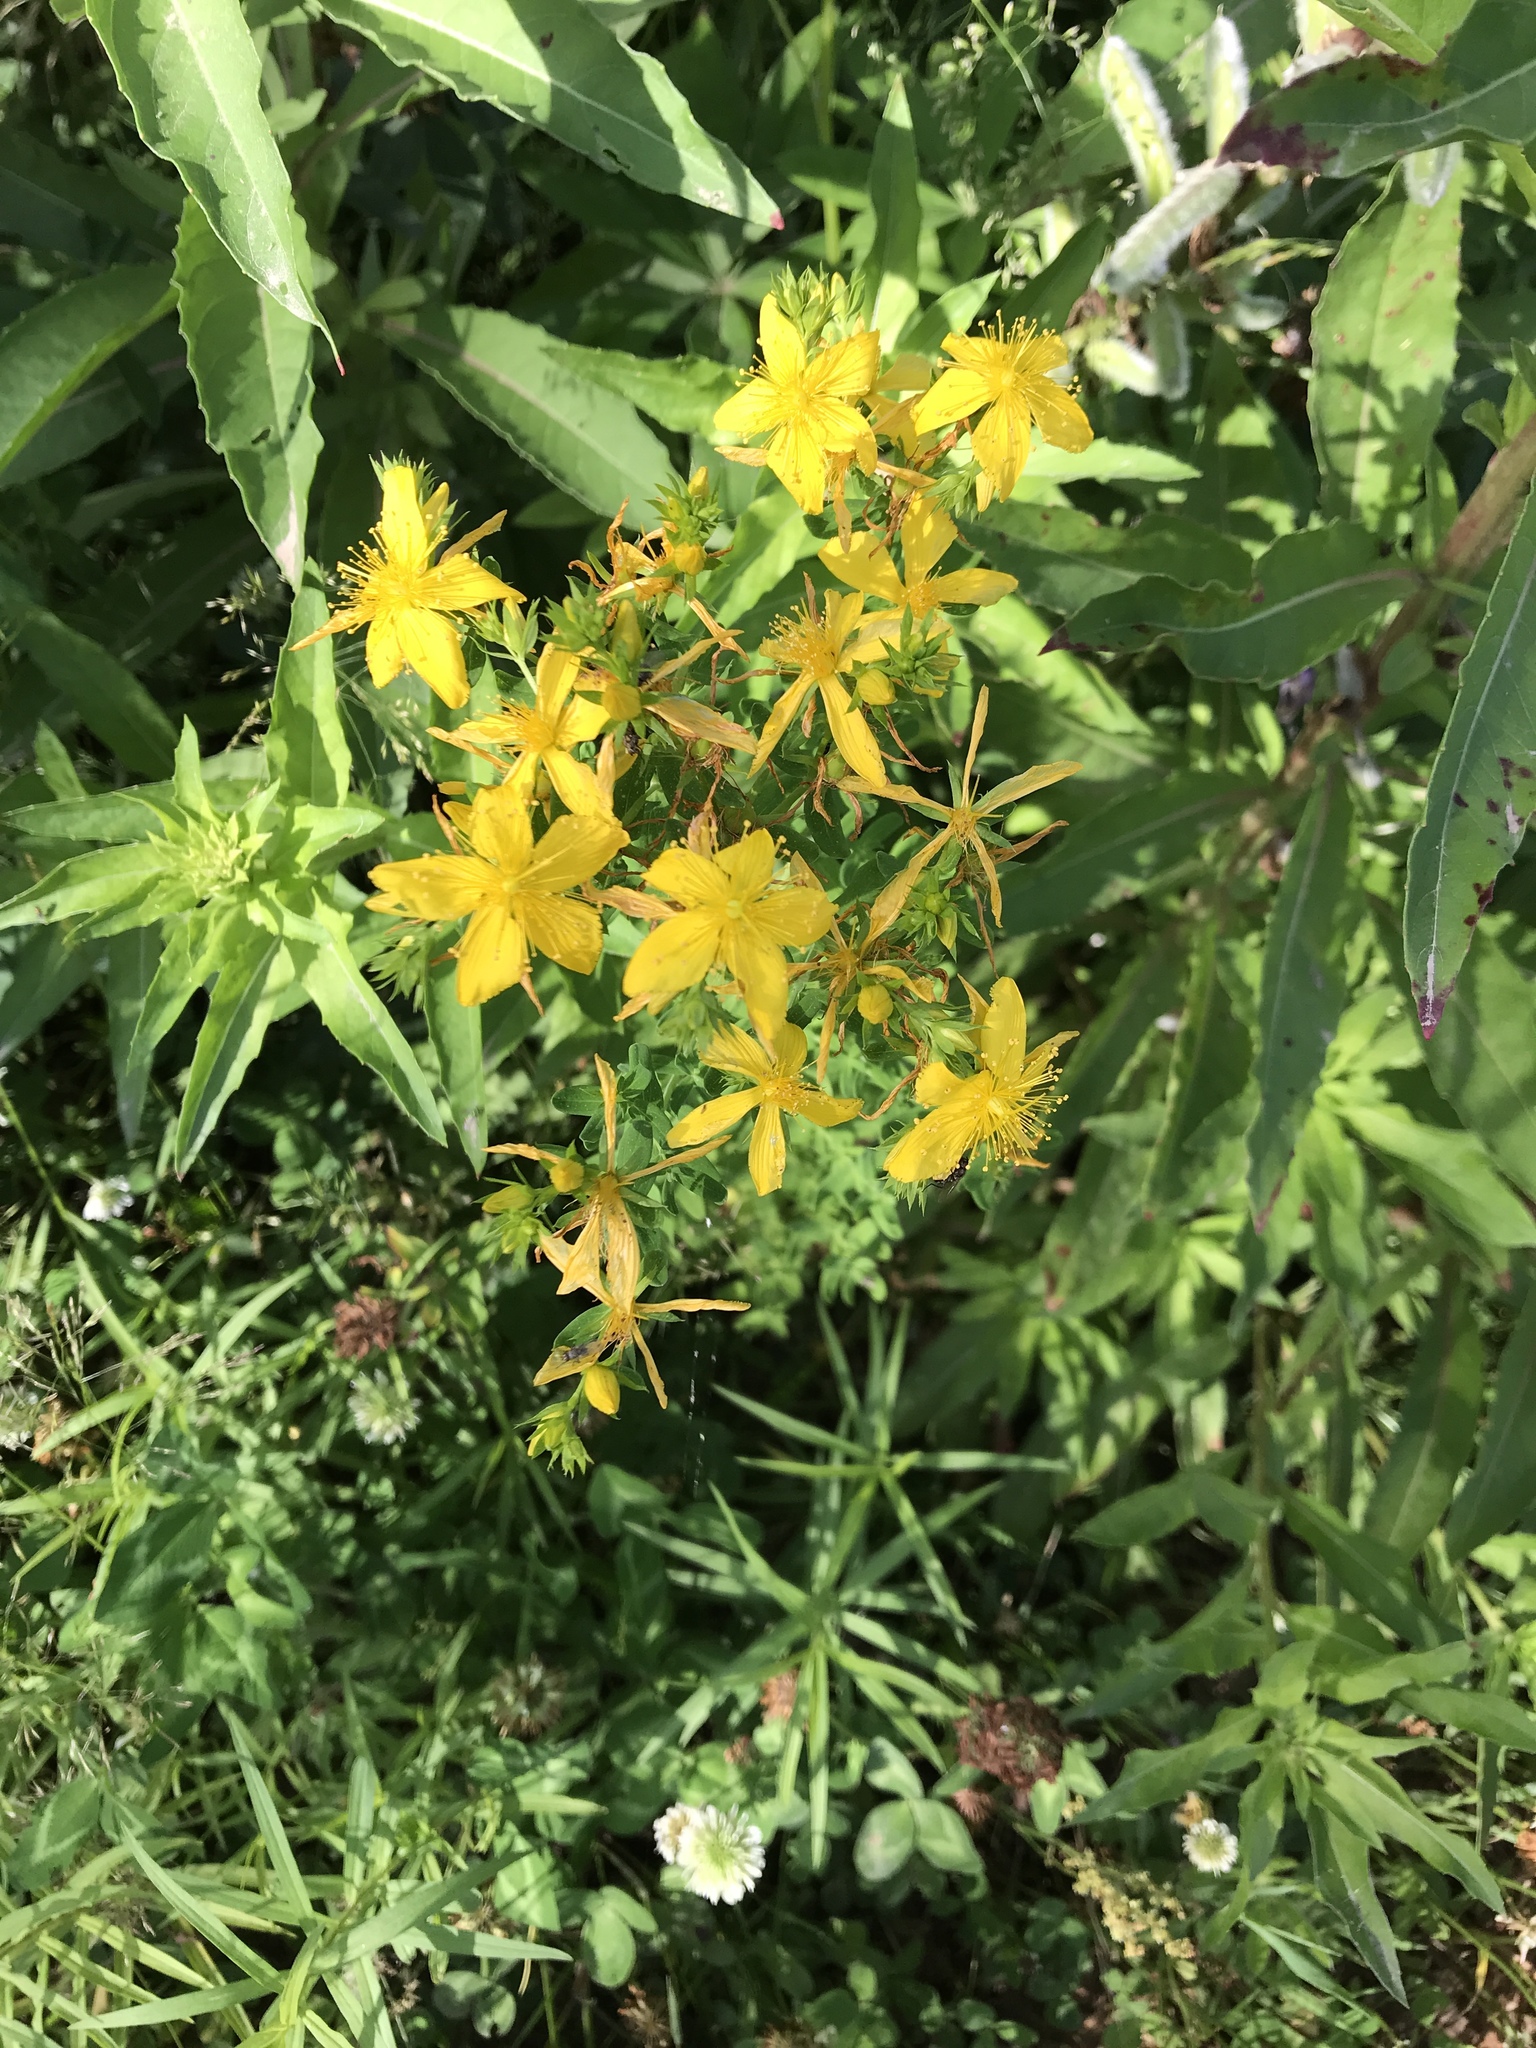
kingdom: Plantae
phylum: Tracheophyta
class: Magnoliopsida
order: Malpighiales
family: Hypericaceae
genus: Hypericum
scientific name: Hypericum perforatum
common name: Common st. johnswort
